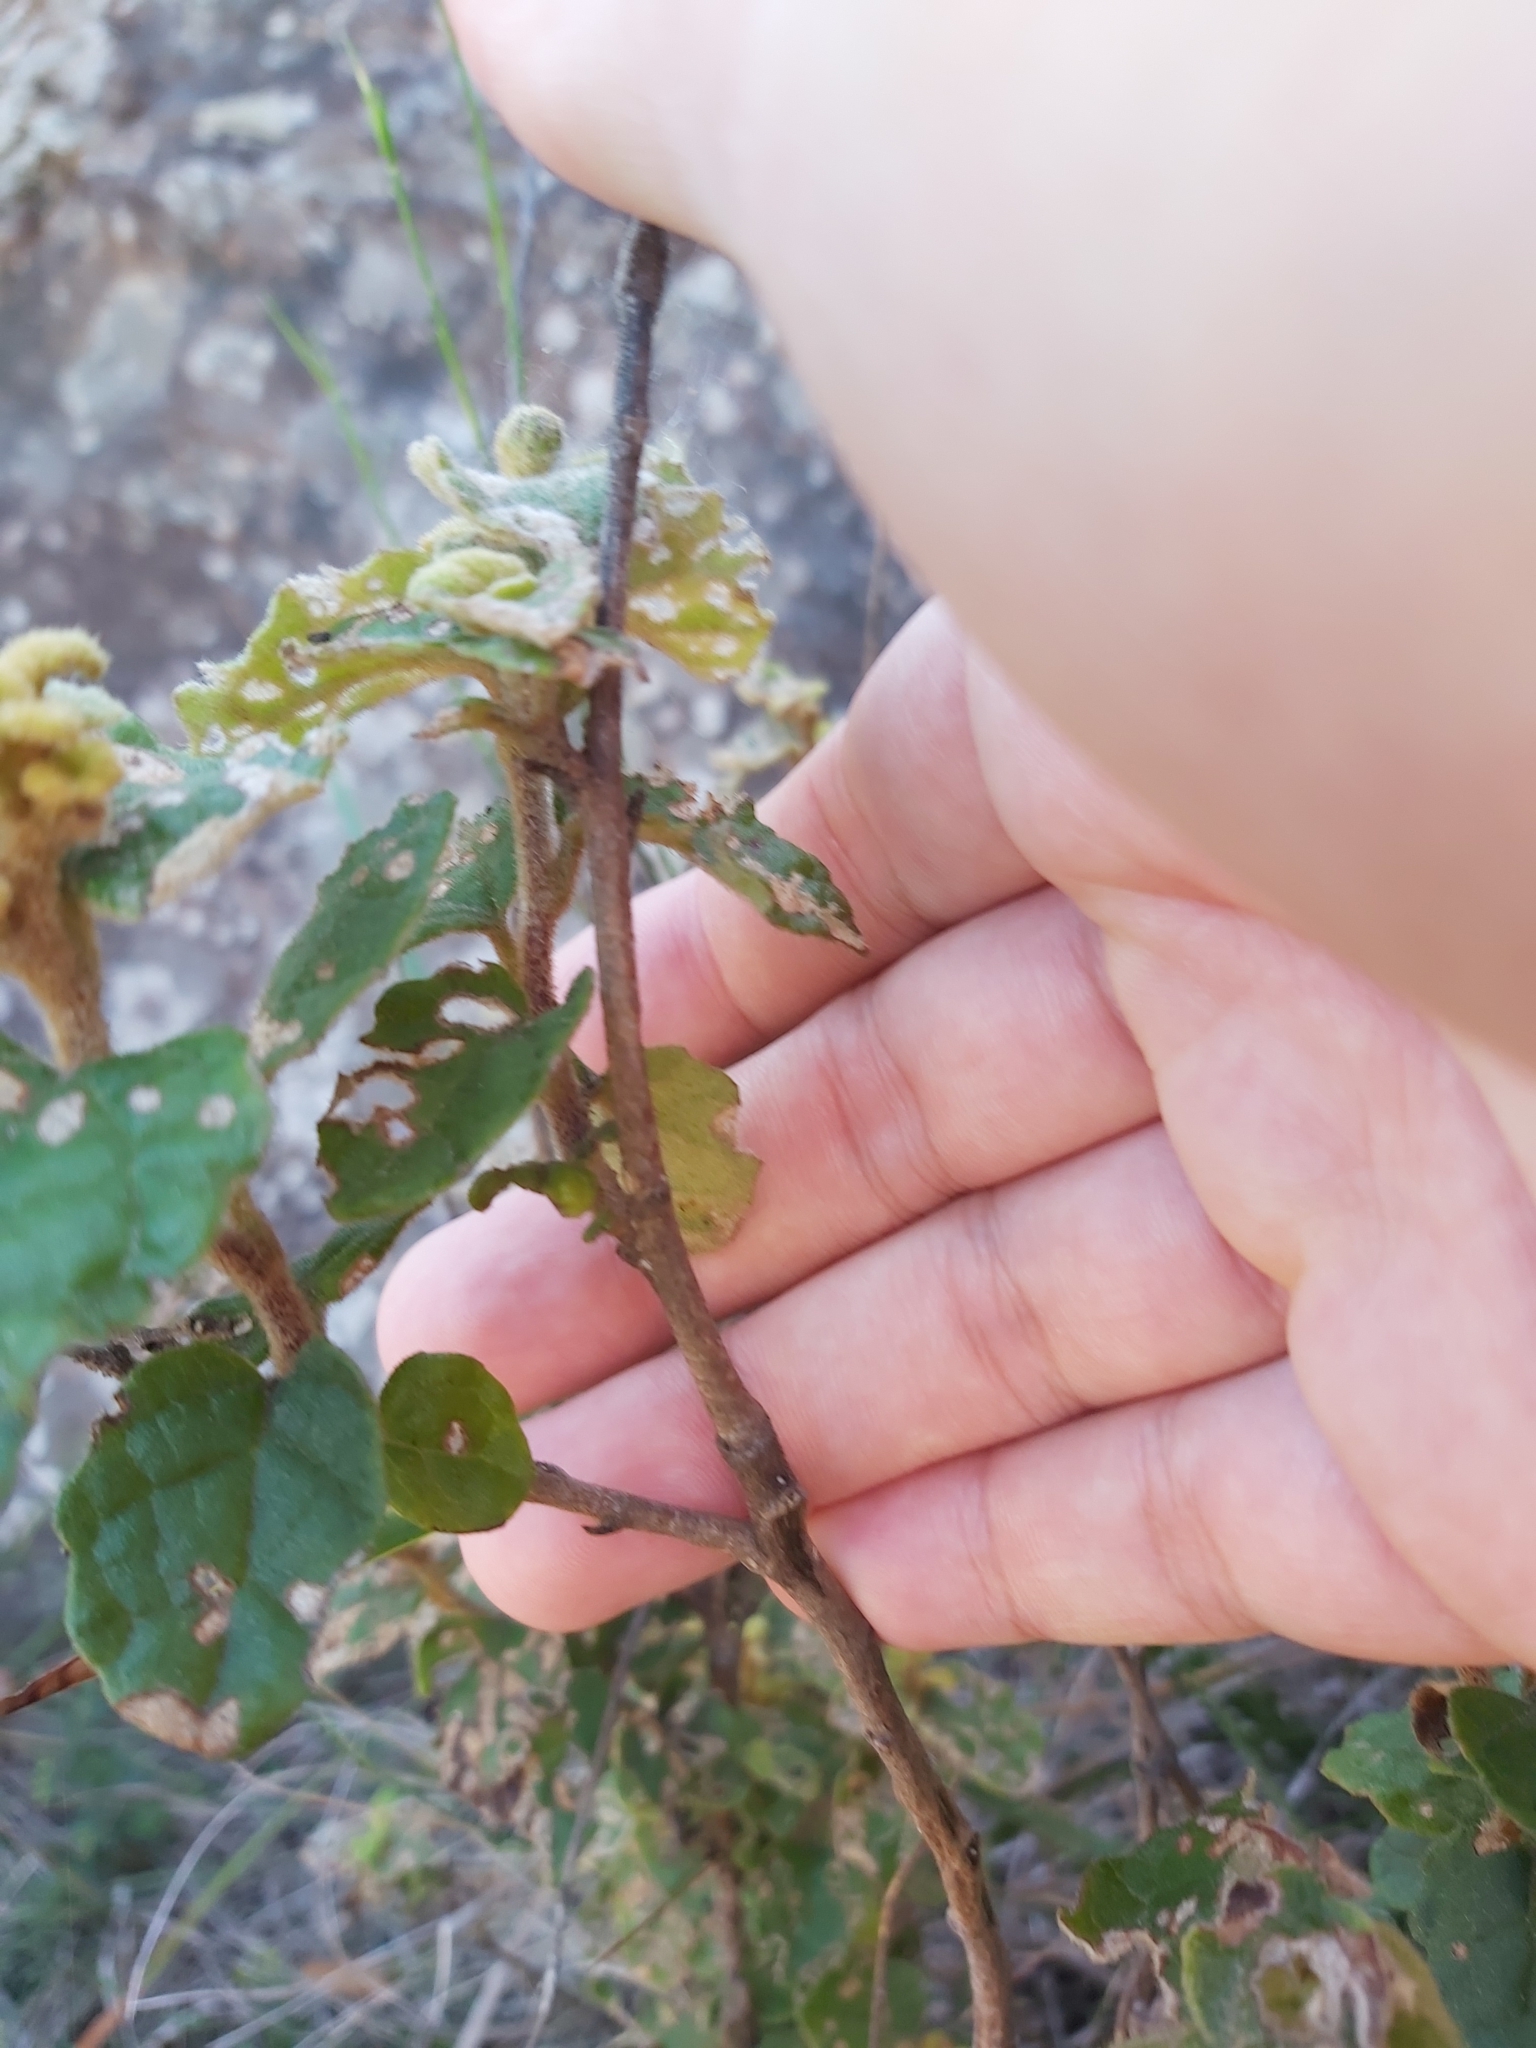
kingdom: Plantae
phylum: Tracheophyta
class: Magnoliopsida
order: Asterales
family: Asteraceae
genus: Olearia
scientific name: Olearia tomentosa
